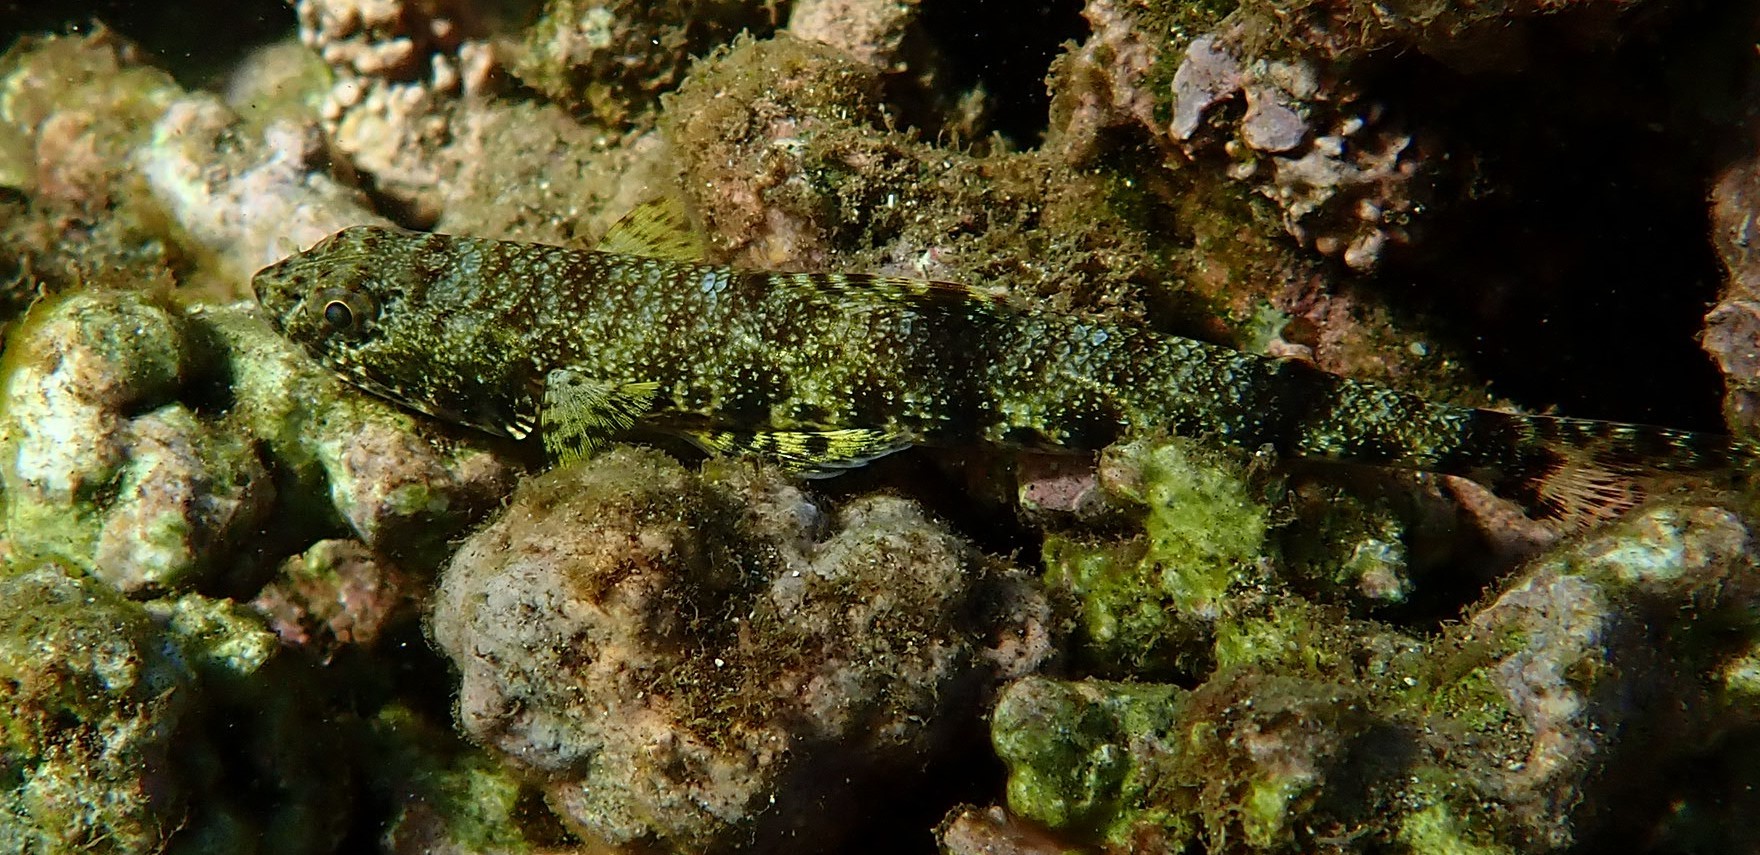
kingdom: Animalia
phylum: Chordata
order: Aulopiformes
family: Synodontidae
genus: Saurida
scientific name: Saurida nebulosa
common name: Nebulous lizardfish
